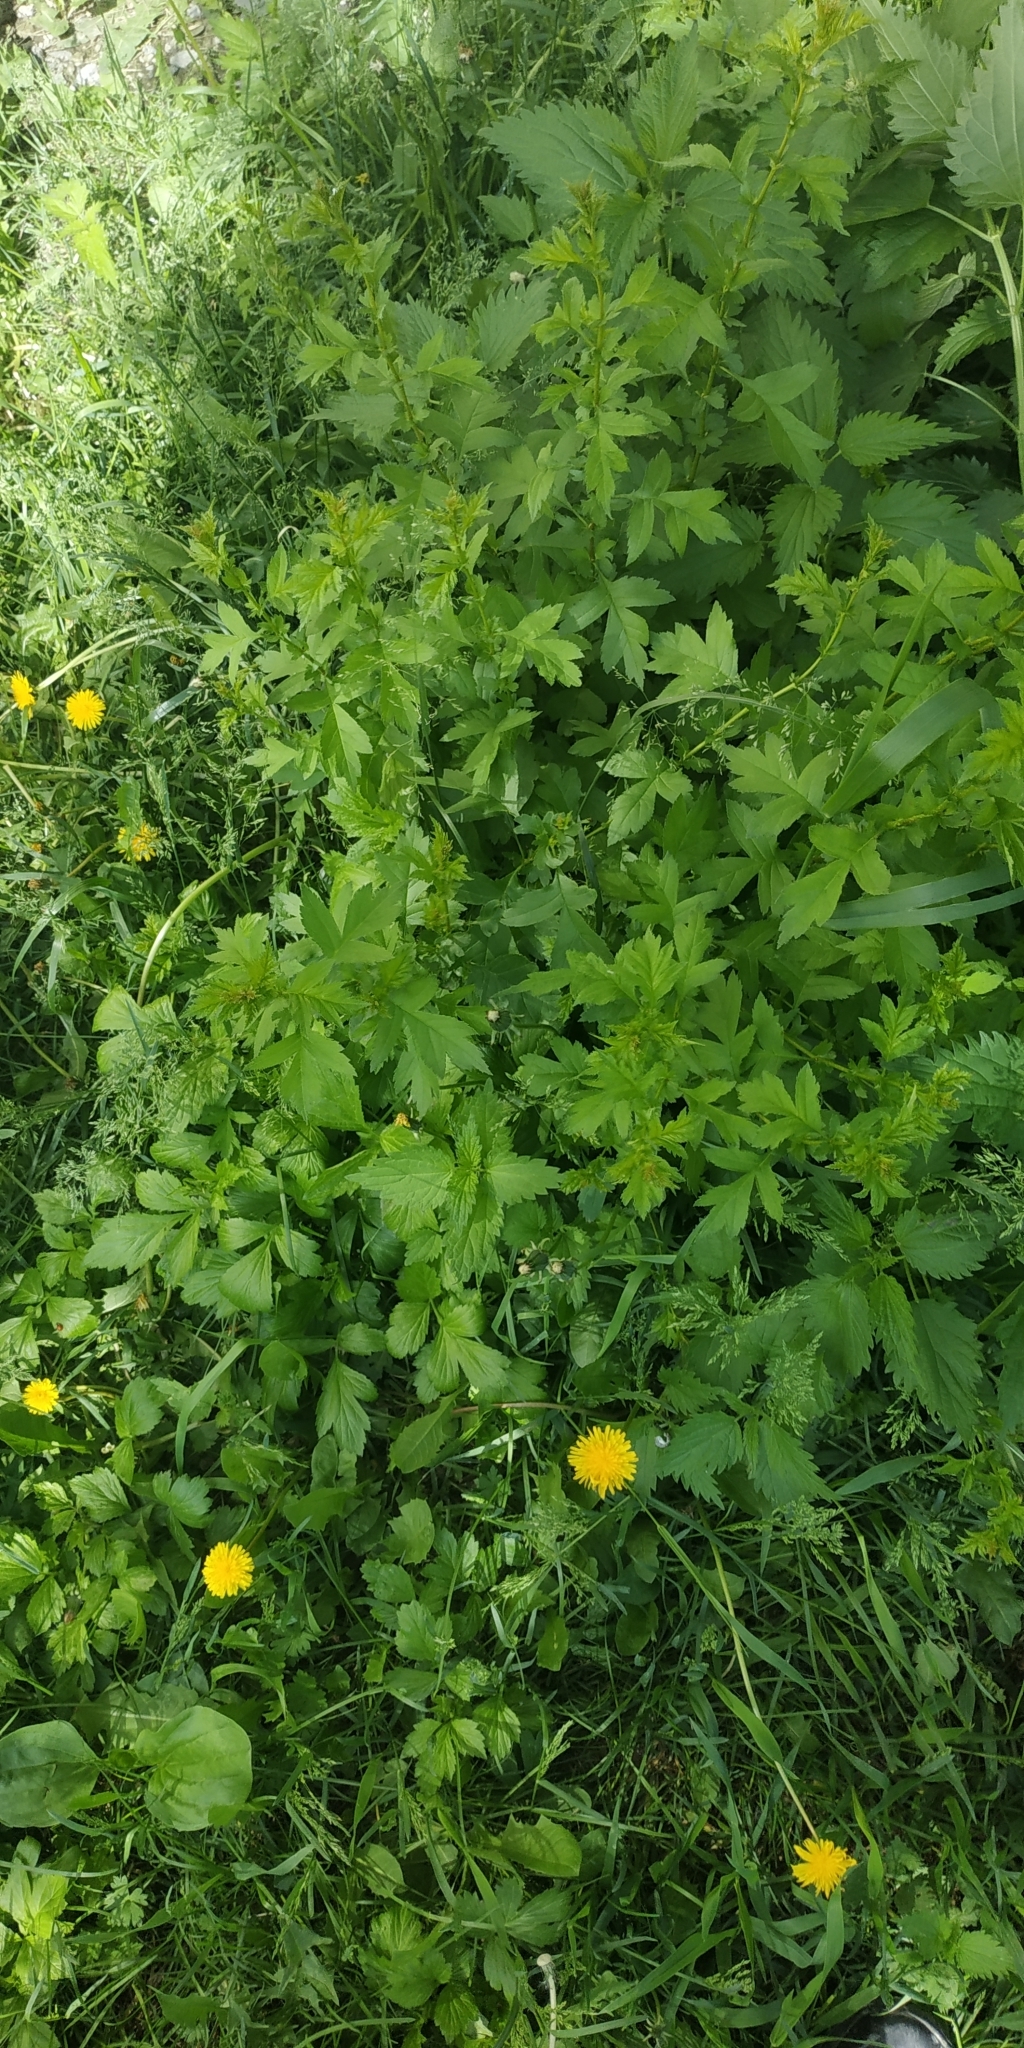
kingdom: Plantae
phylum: Tracheophyta
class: Magnoliopsida
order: Rosales
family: Rosaceae
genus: Crataegus
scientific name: Crataegus
